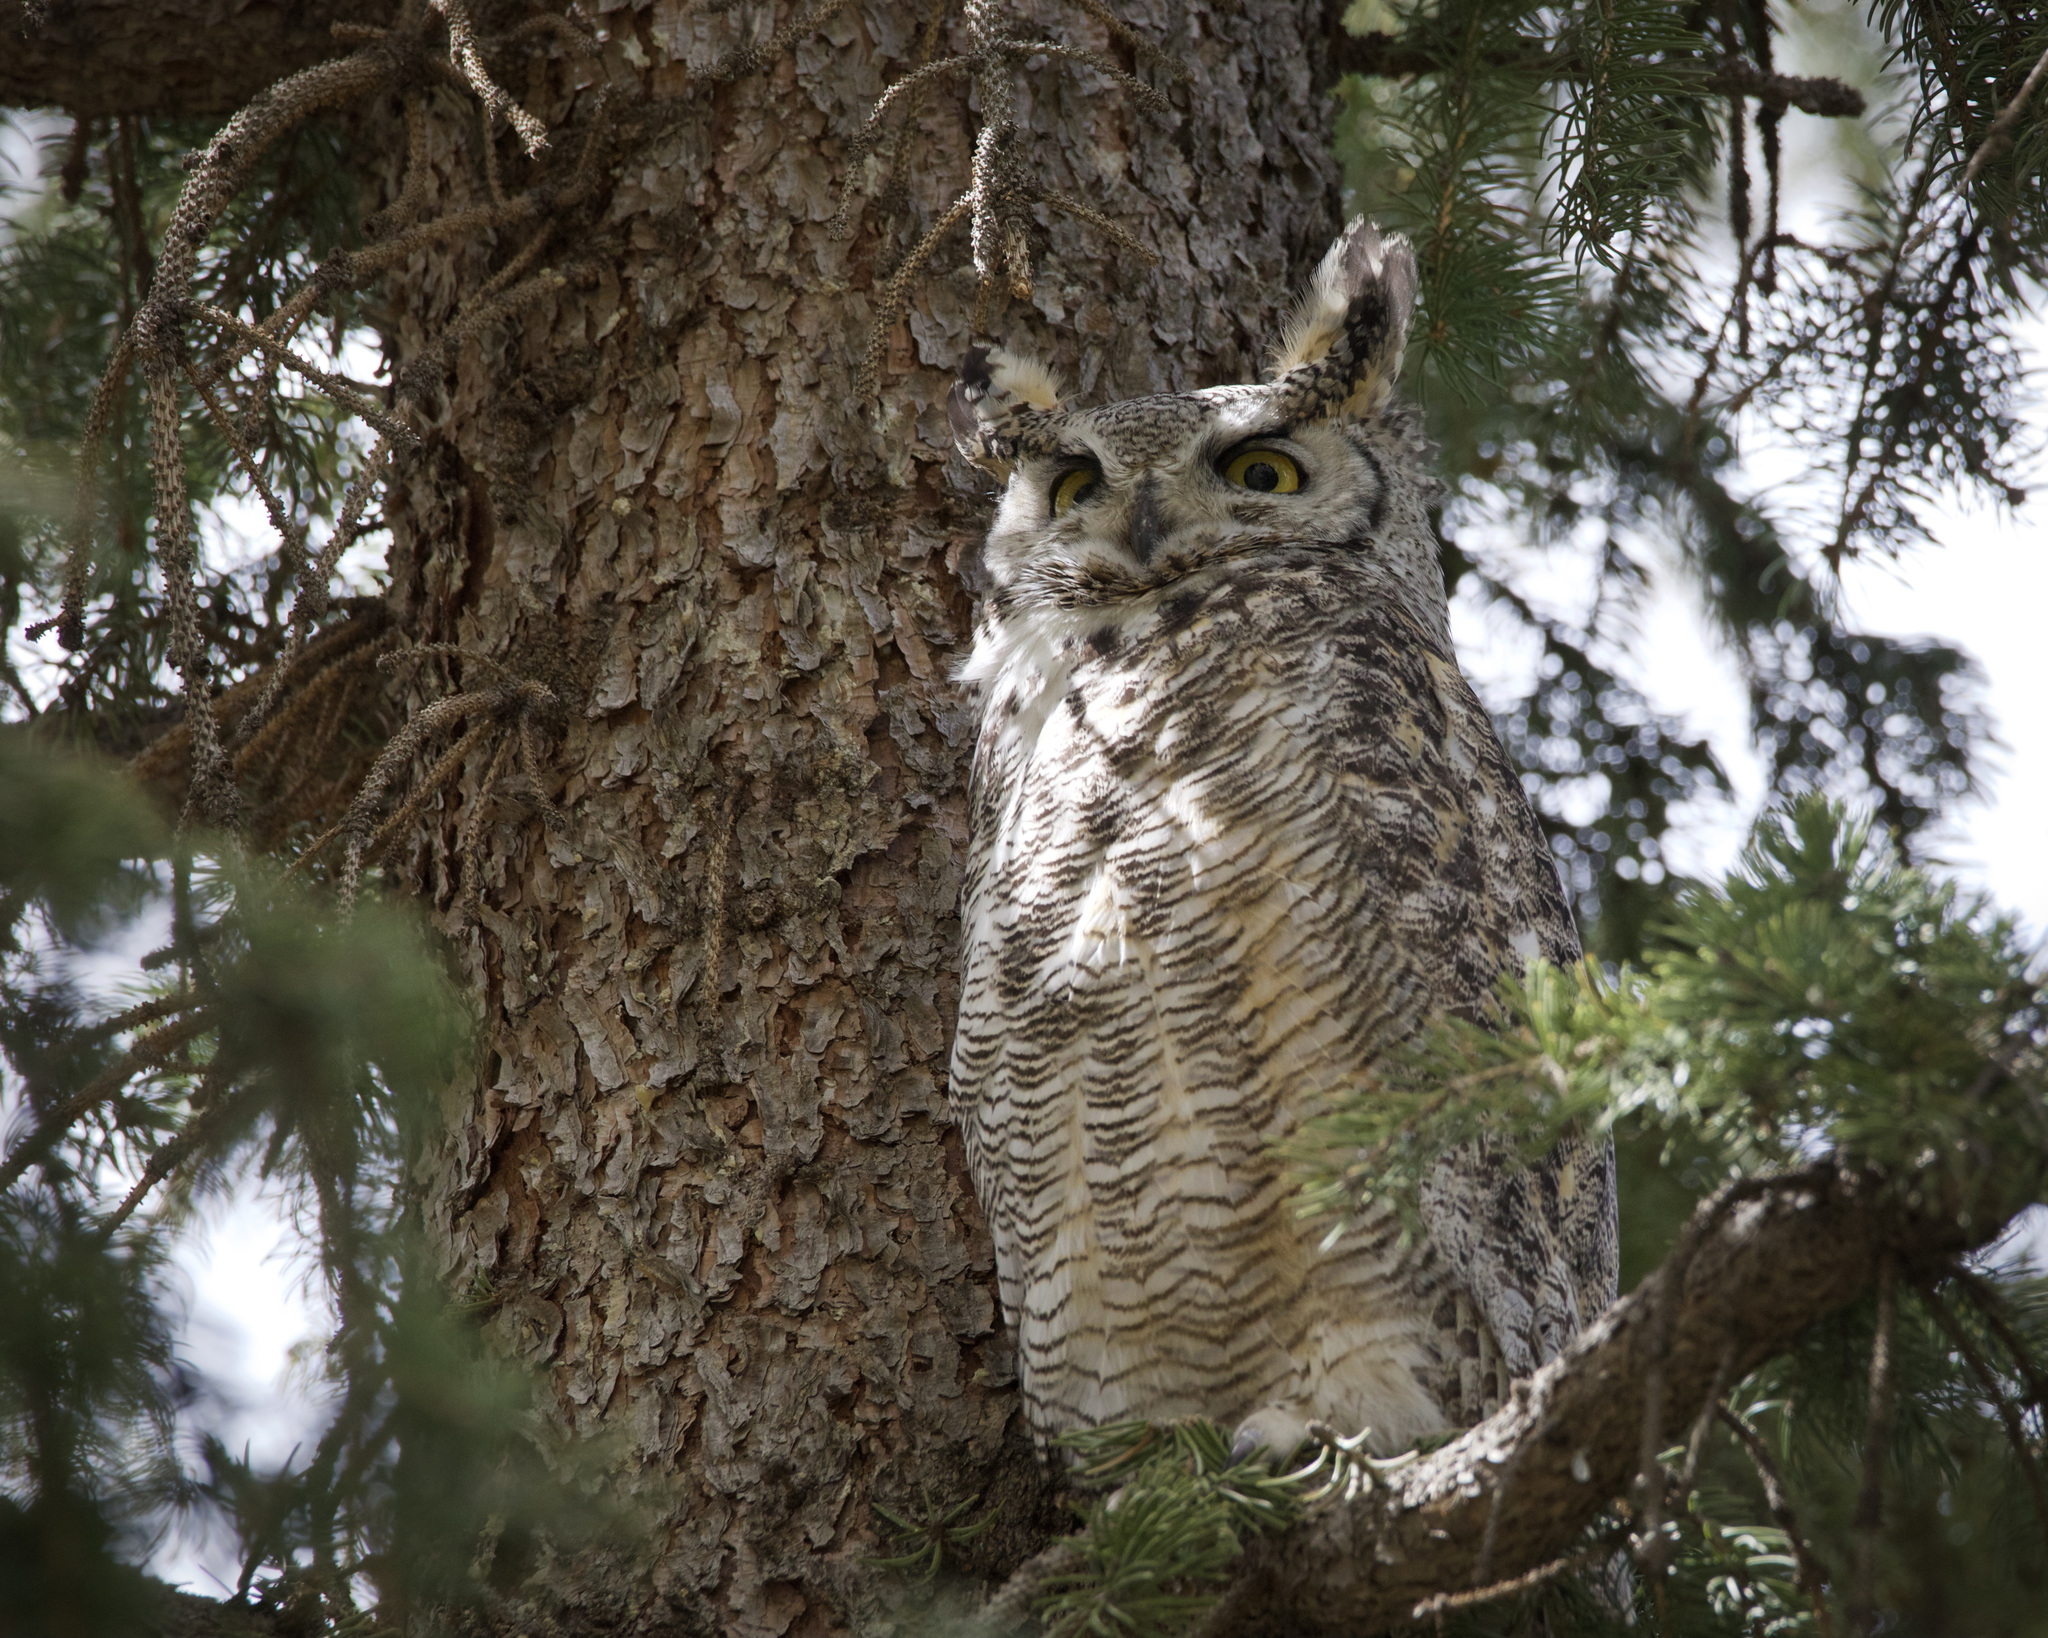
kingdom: Animalia
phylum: Chordata
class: Aves
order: Strigiformes
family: Strigidae
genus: Bubo
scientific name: Bubo virginianus
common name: Great horned owl
